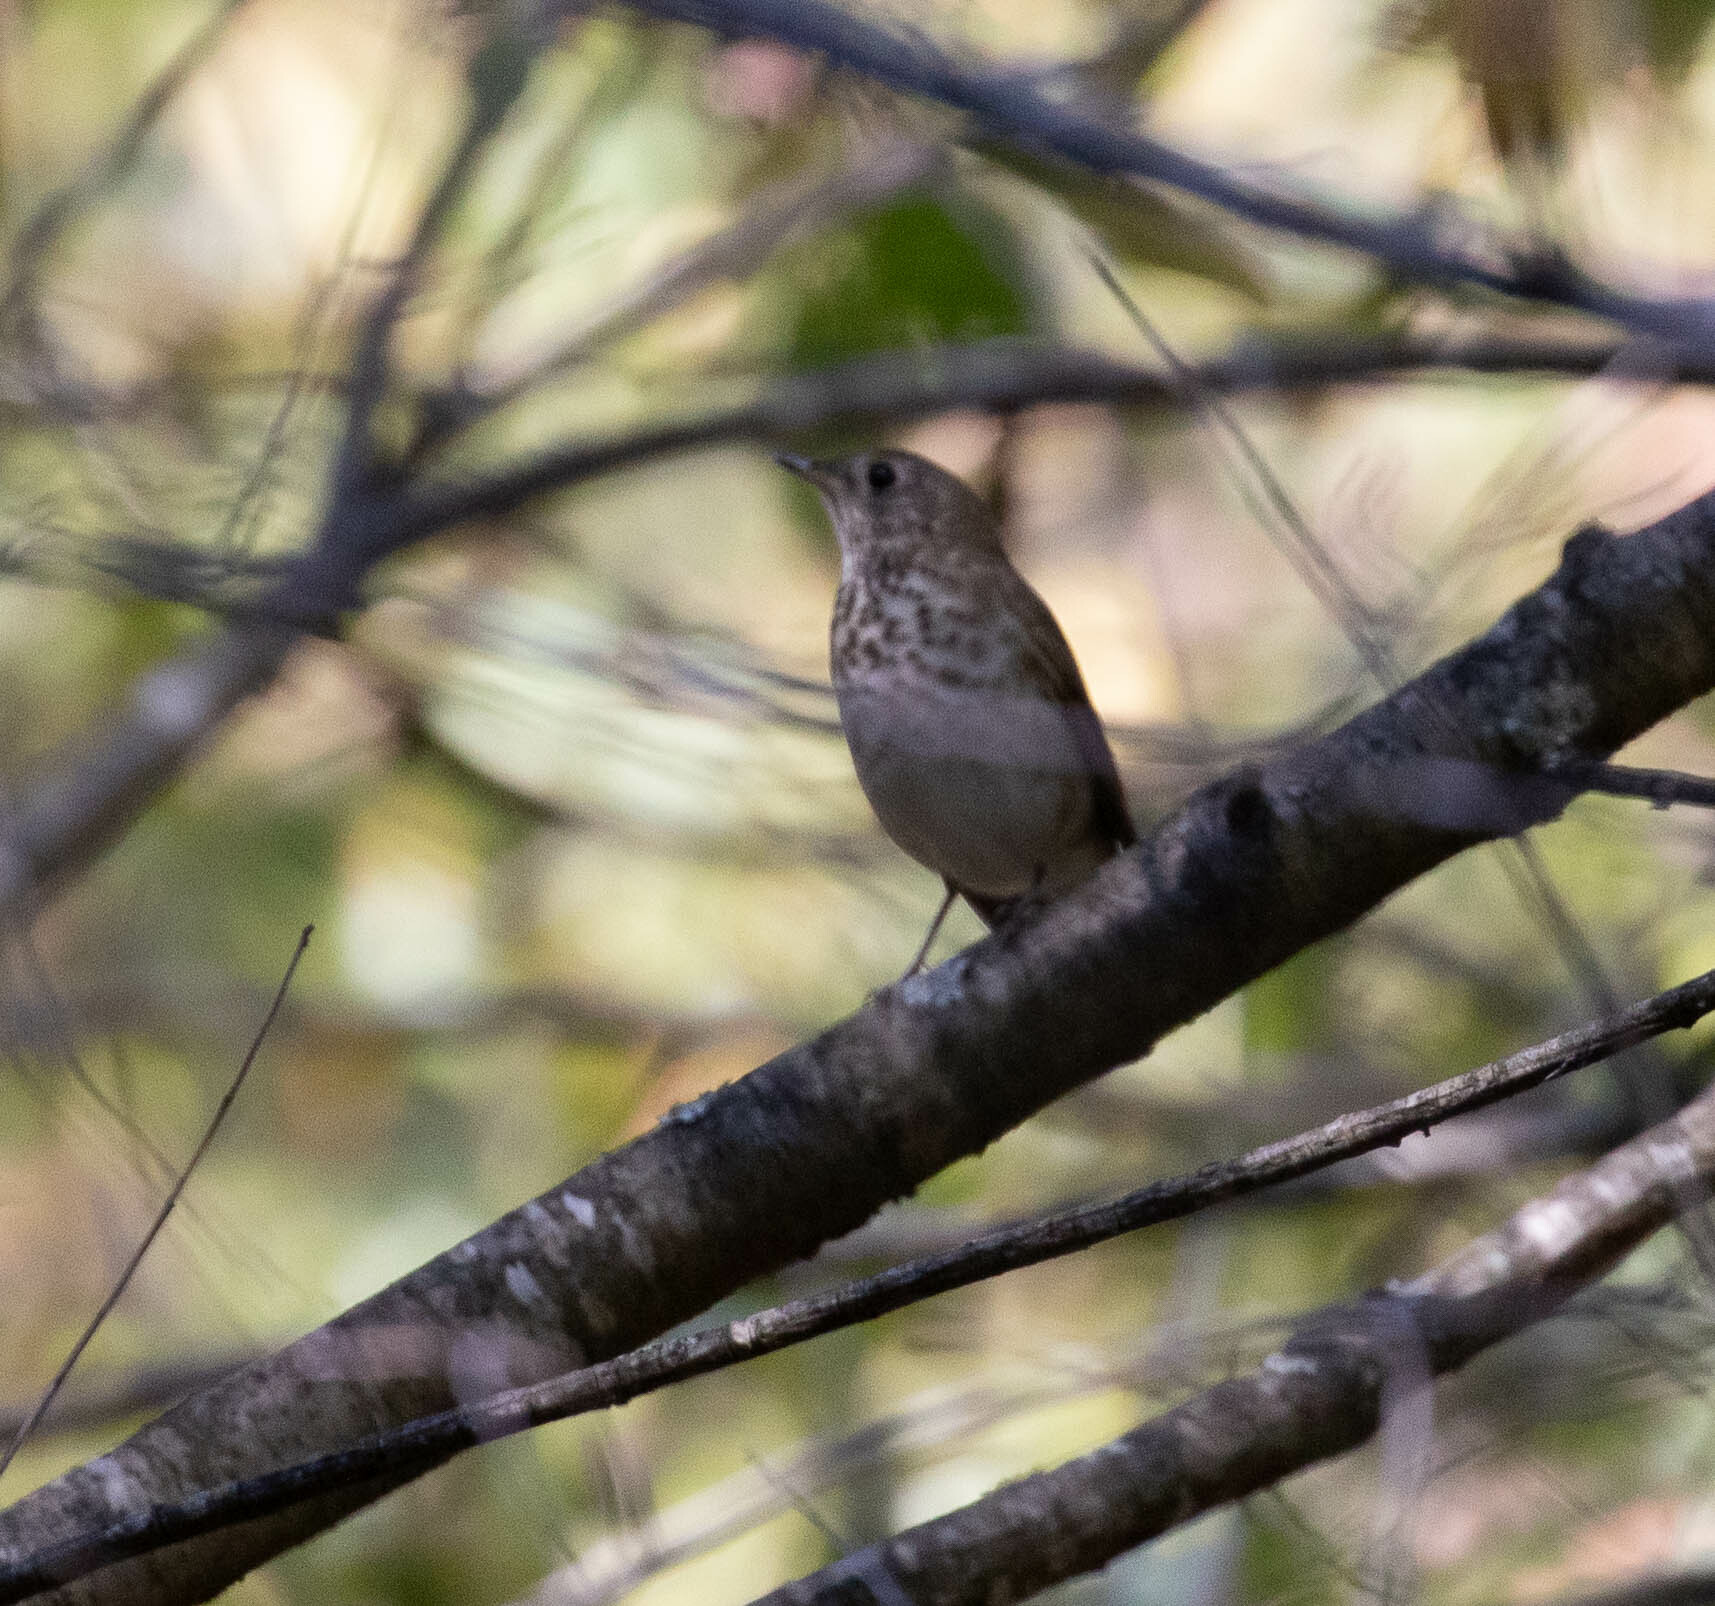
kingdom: Animalia
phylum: Chordata
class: Aves
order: Passeriformes
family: Turdidae
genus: Catharus
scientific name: Catharus minimus
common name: Grey-cheeked thrush
